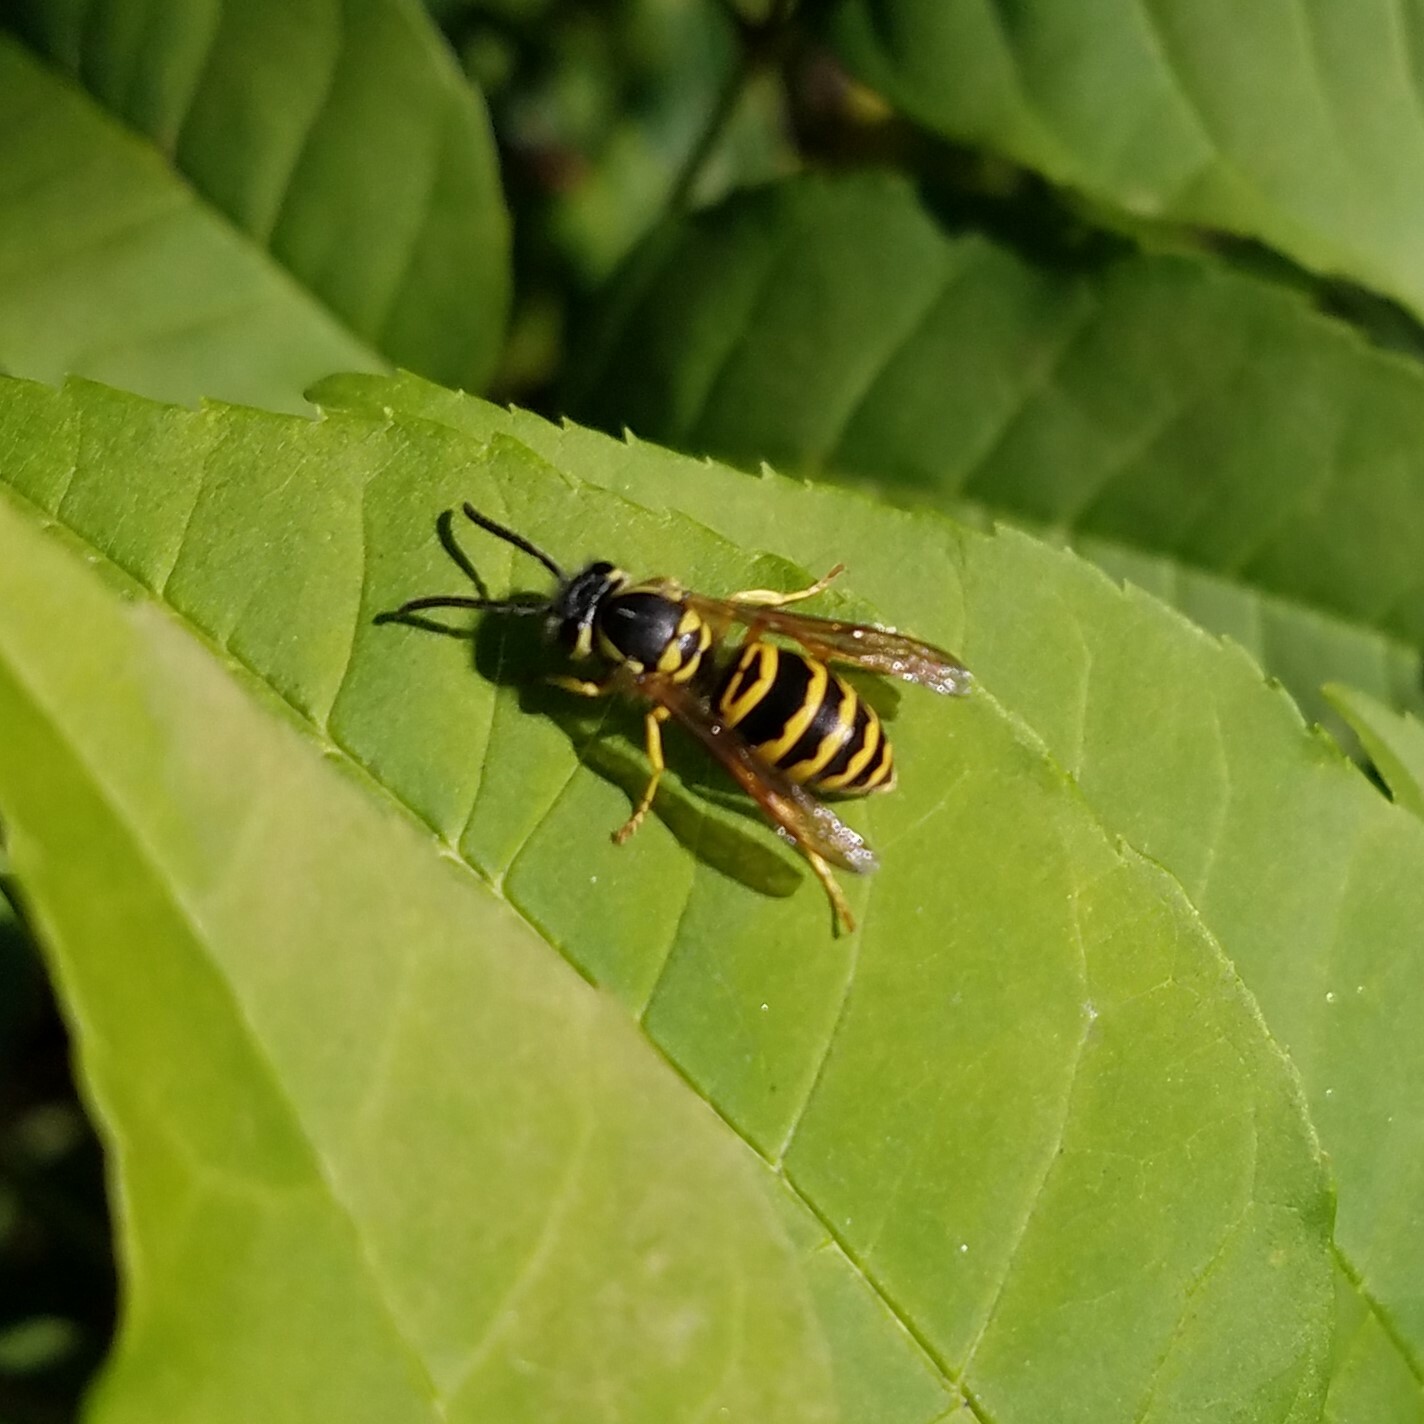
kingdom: Animalia
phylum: Arthropoda
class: Insecta
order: Hymenoptera
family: Vespidae
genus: Vespula
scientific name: Vespula maculifrons
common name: Eastern yellowjacket
